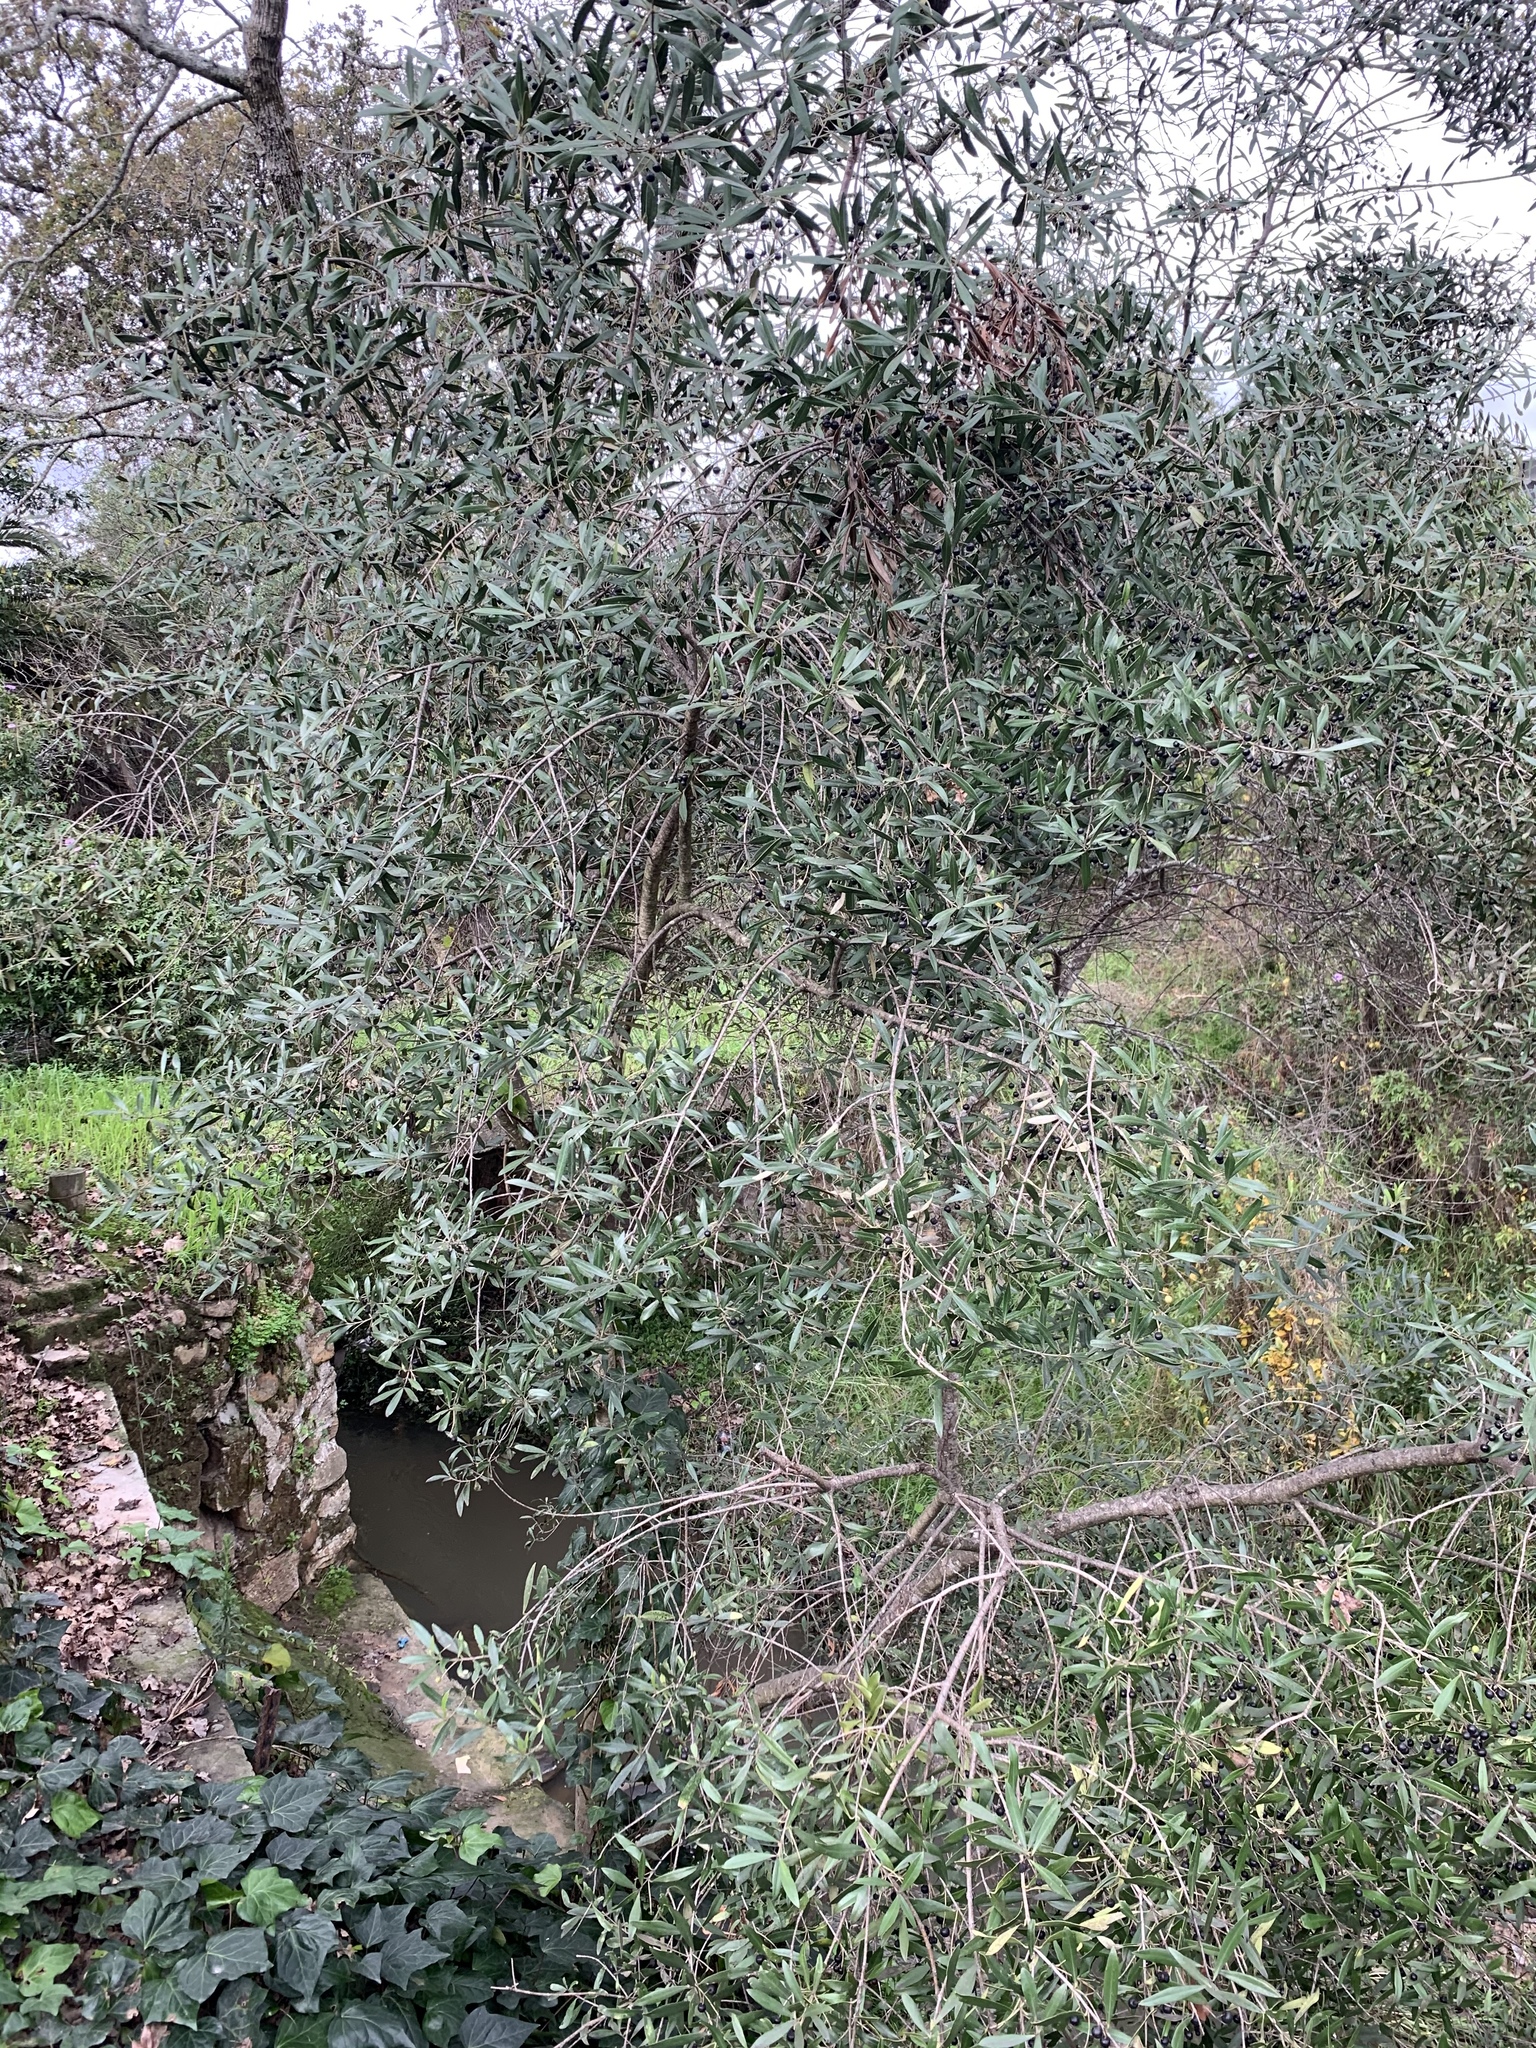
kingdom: Plantae
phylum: Tracheophyta
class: Magnoliopsida
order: Lamiales
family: Oleaceae
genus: Olea
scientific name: Olea europaea
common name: Olive
